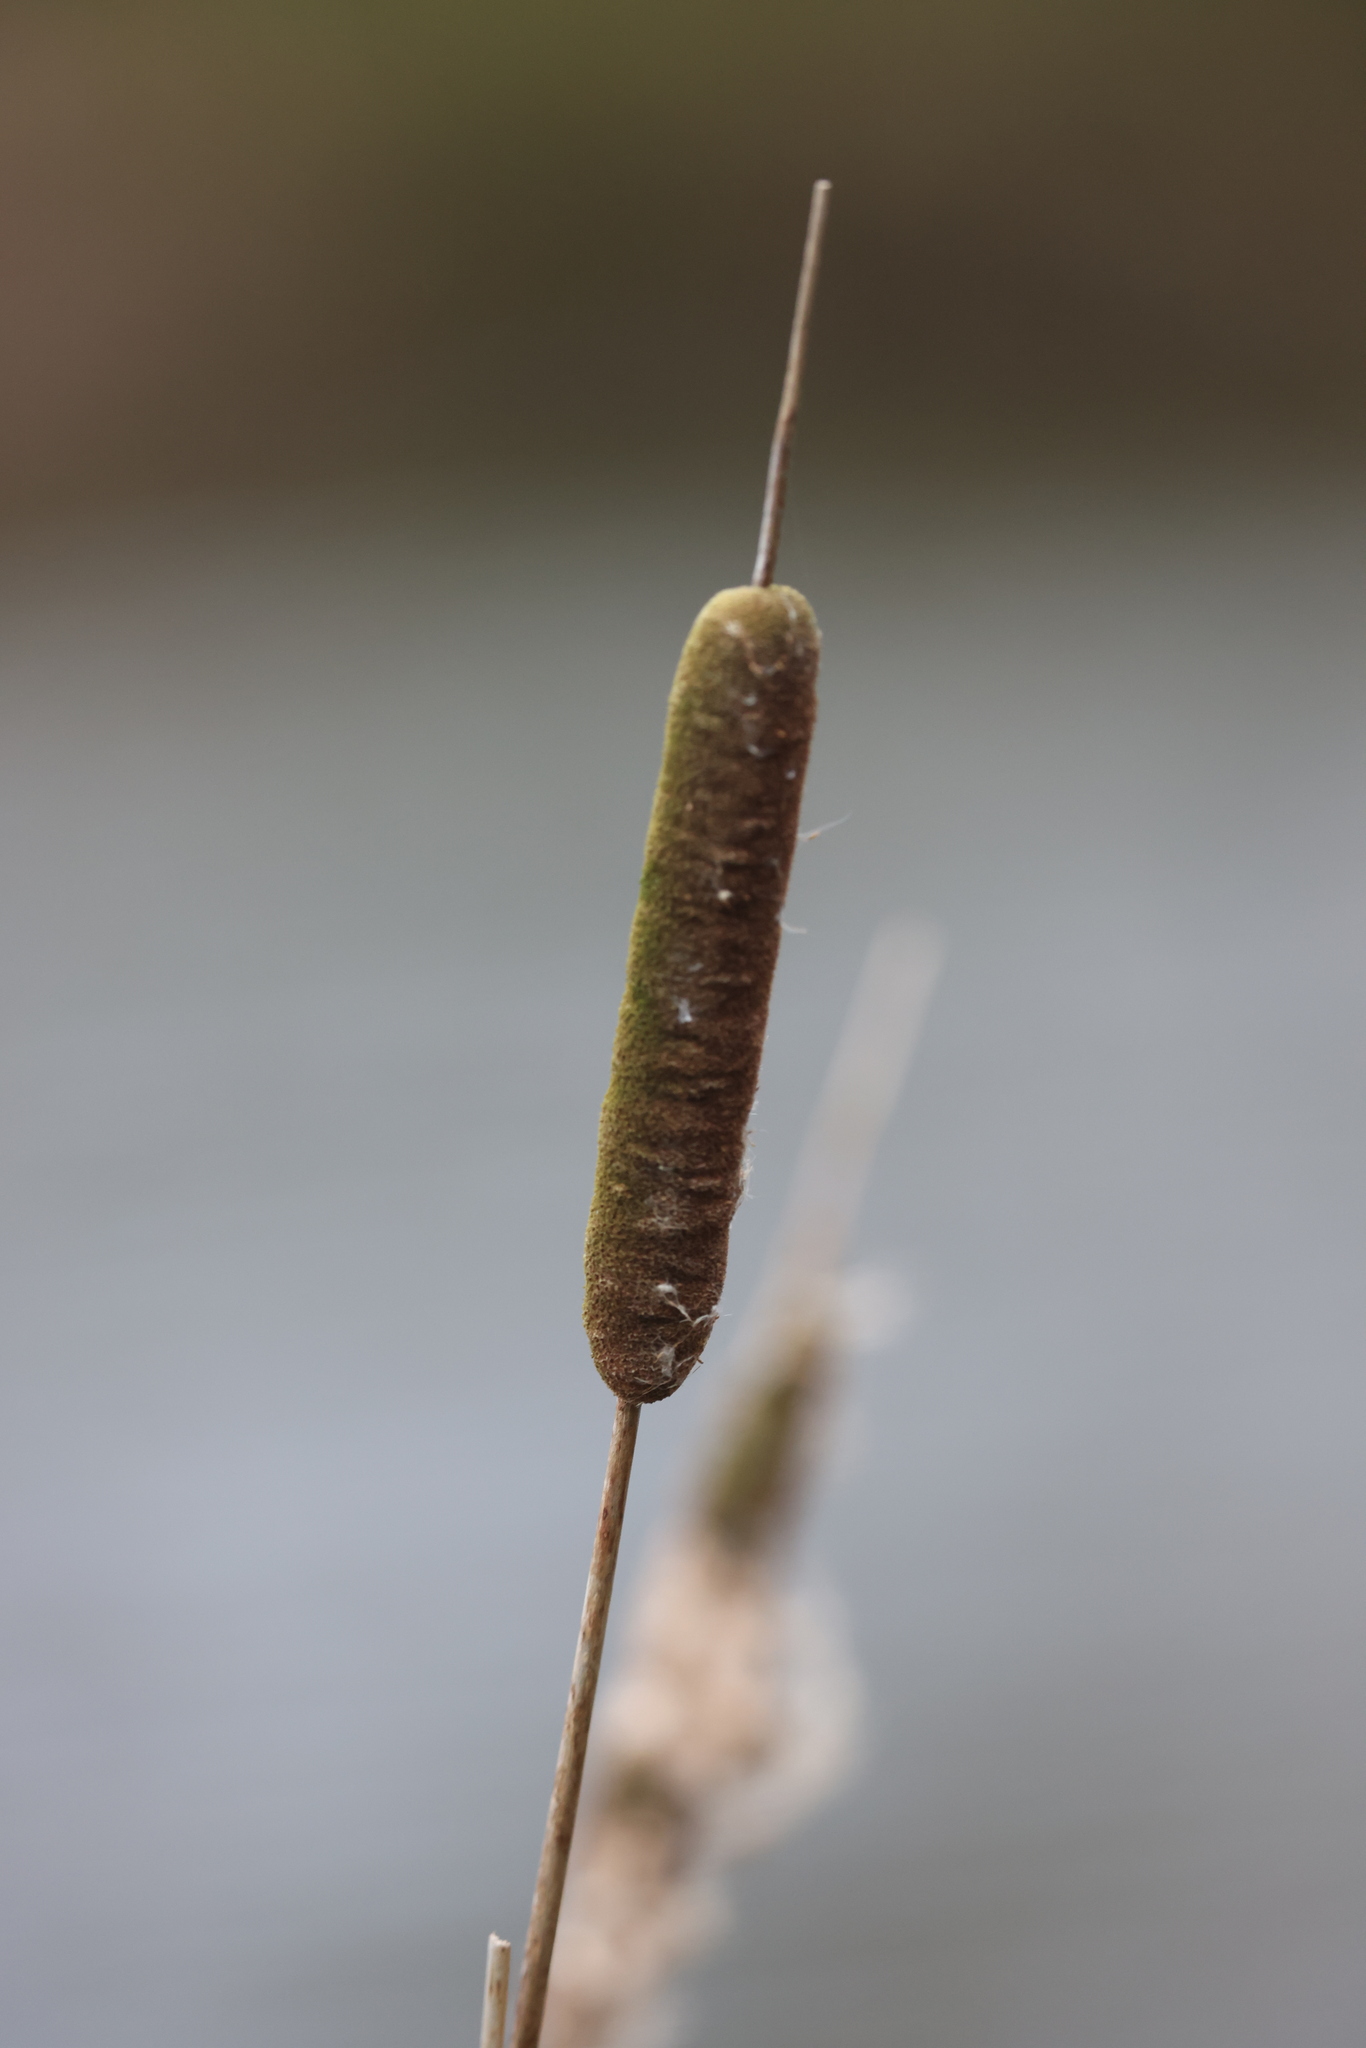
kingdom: Plantae
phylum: Tracheophyta
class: Liliopsida
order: Poales
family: Typhaceae
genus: Typha
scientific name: Typha latifolia
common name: Broadleaf cattail
